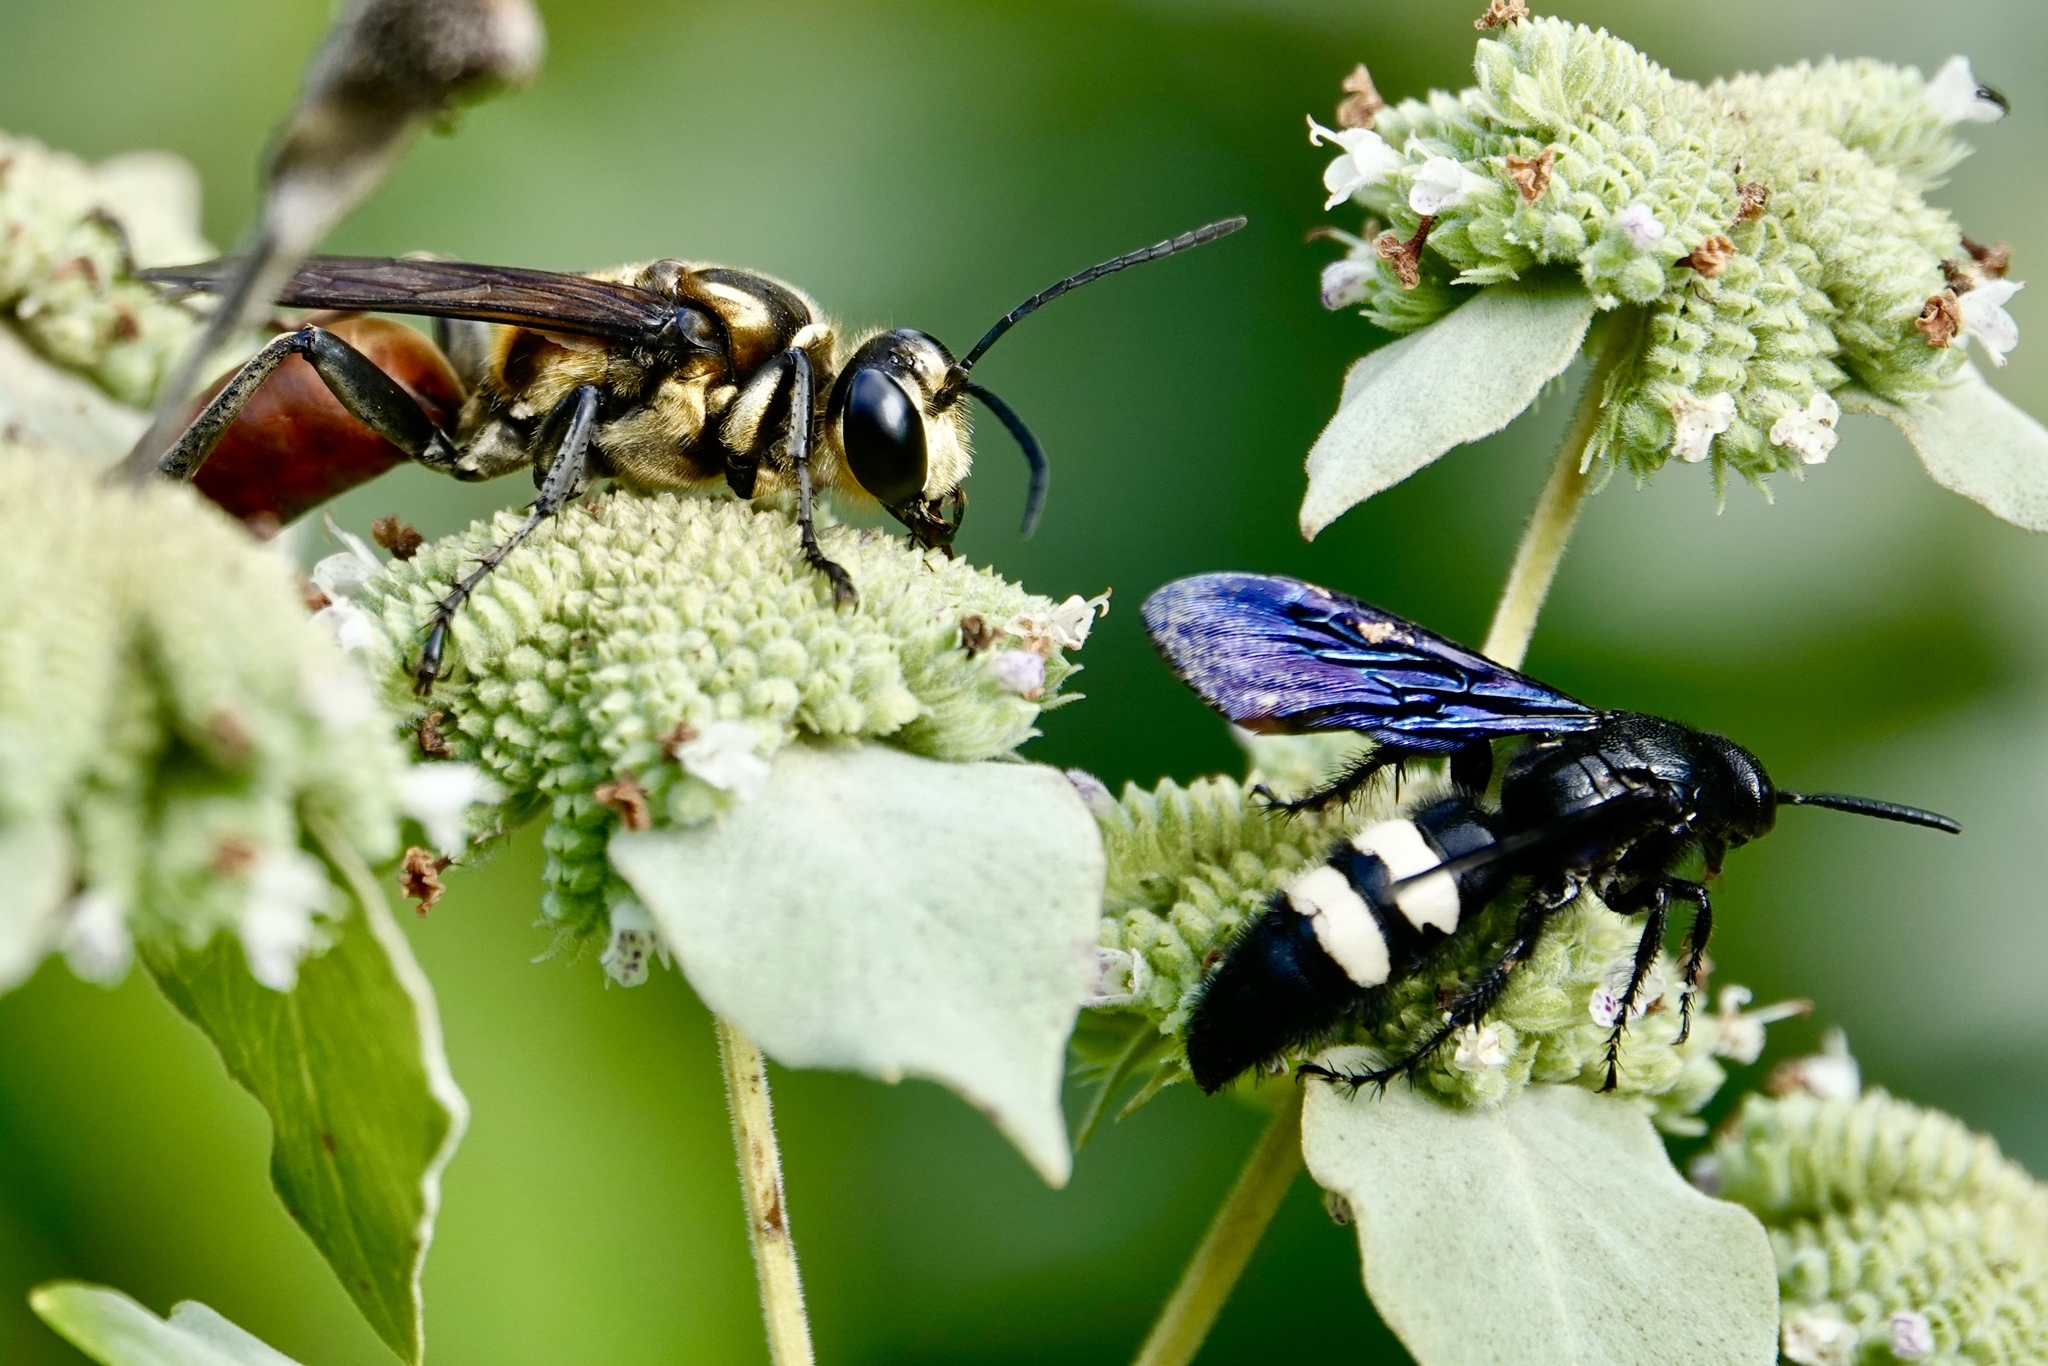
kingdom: Animalia
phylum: Arthropoda
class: Insecta
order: Hymenoptera
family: Sphecidae
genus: Sphex
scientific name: Sphex habenus
